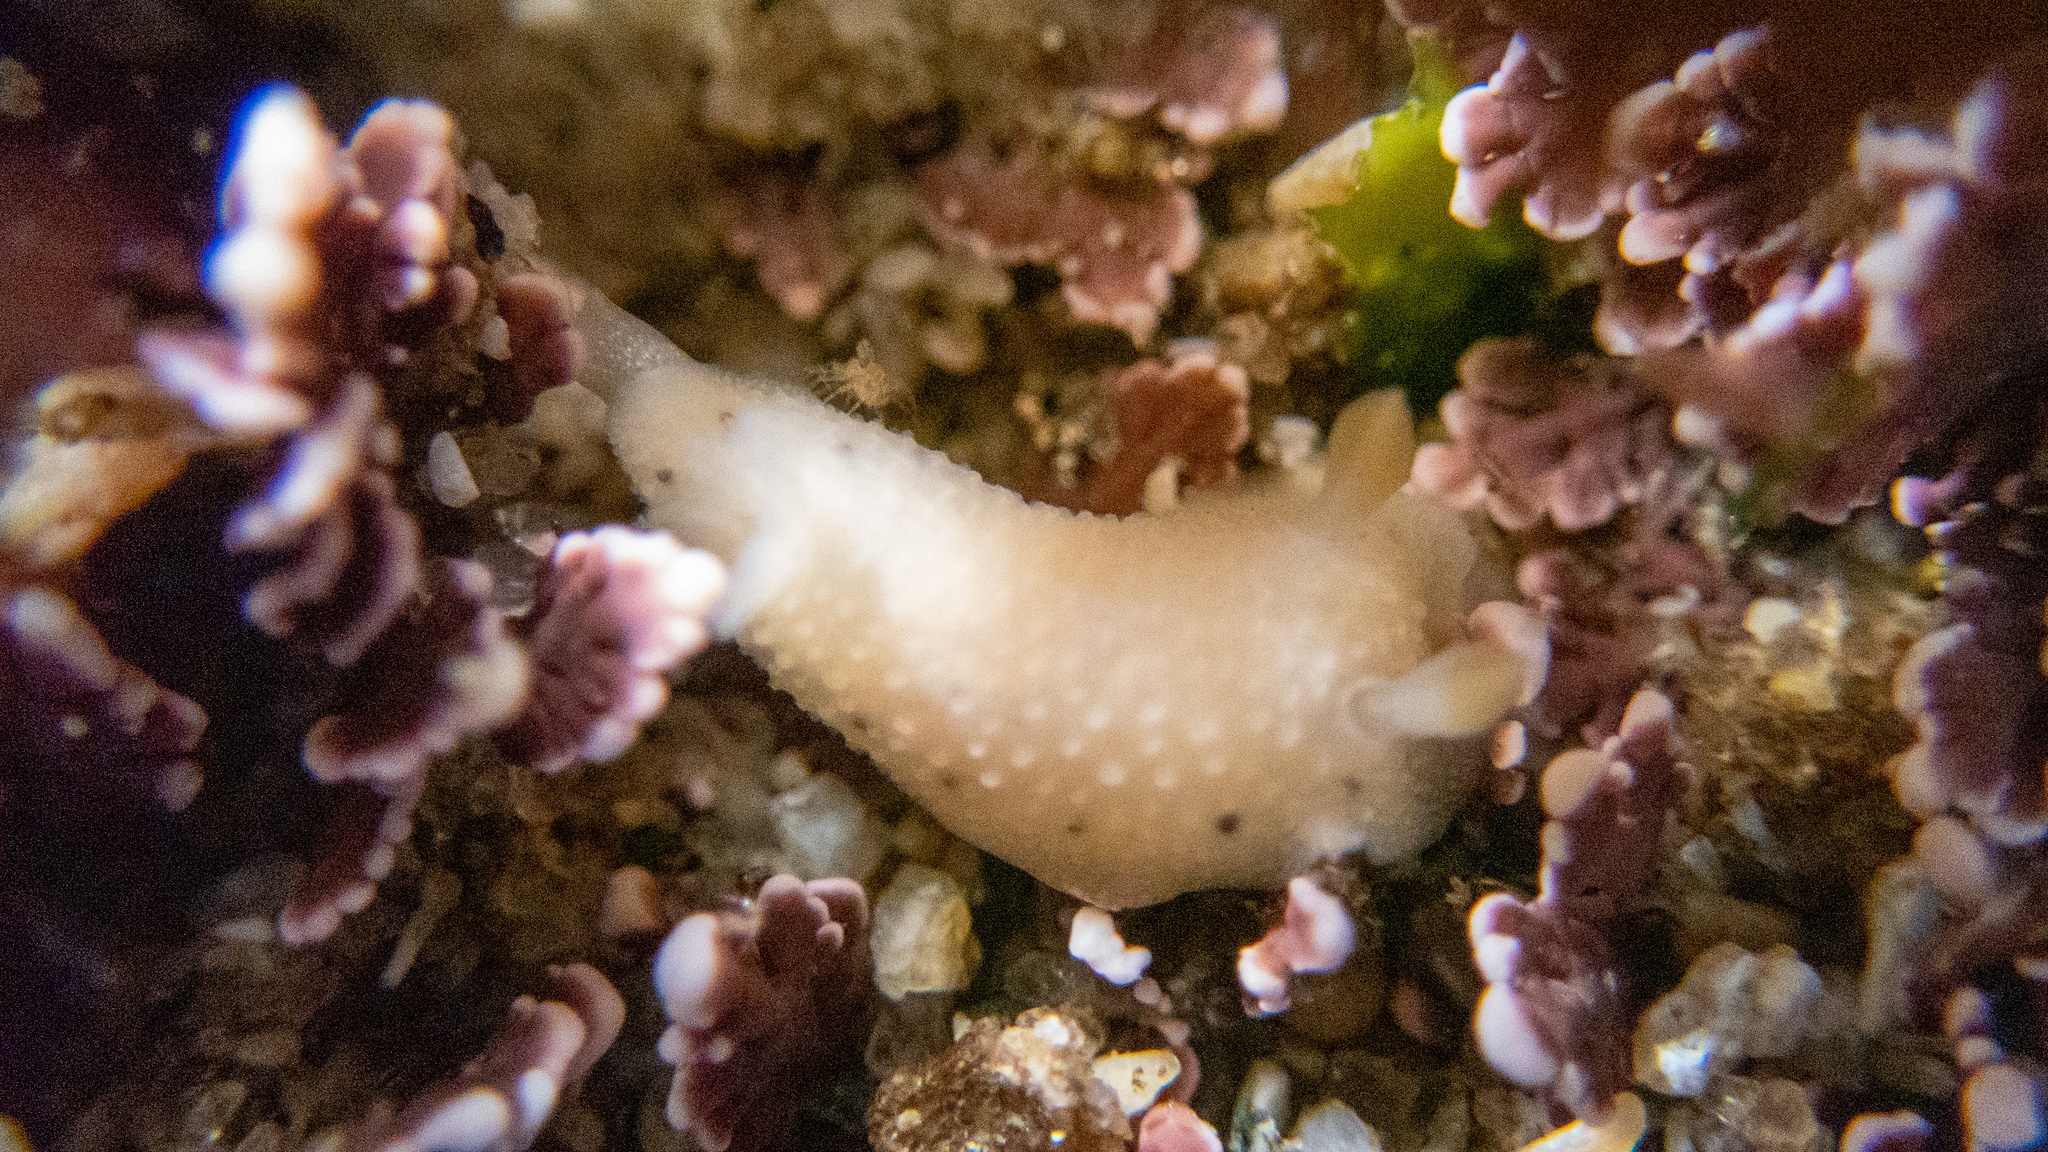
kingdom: Animalia
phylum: Mollusca
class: Gastropoda
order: Nudibranchia
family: Cadlinidae
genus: Cadlina
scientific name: Cadlina sparsa
